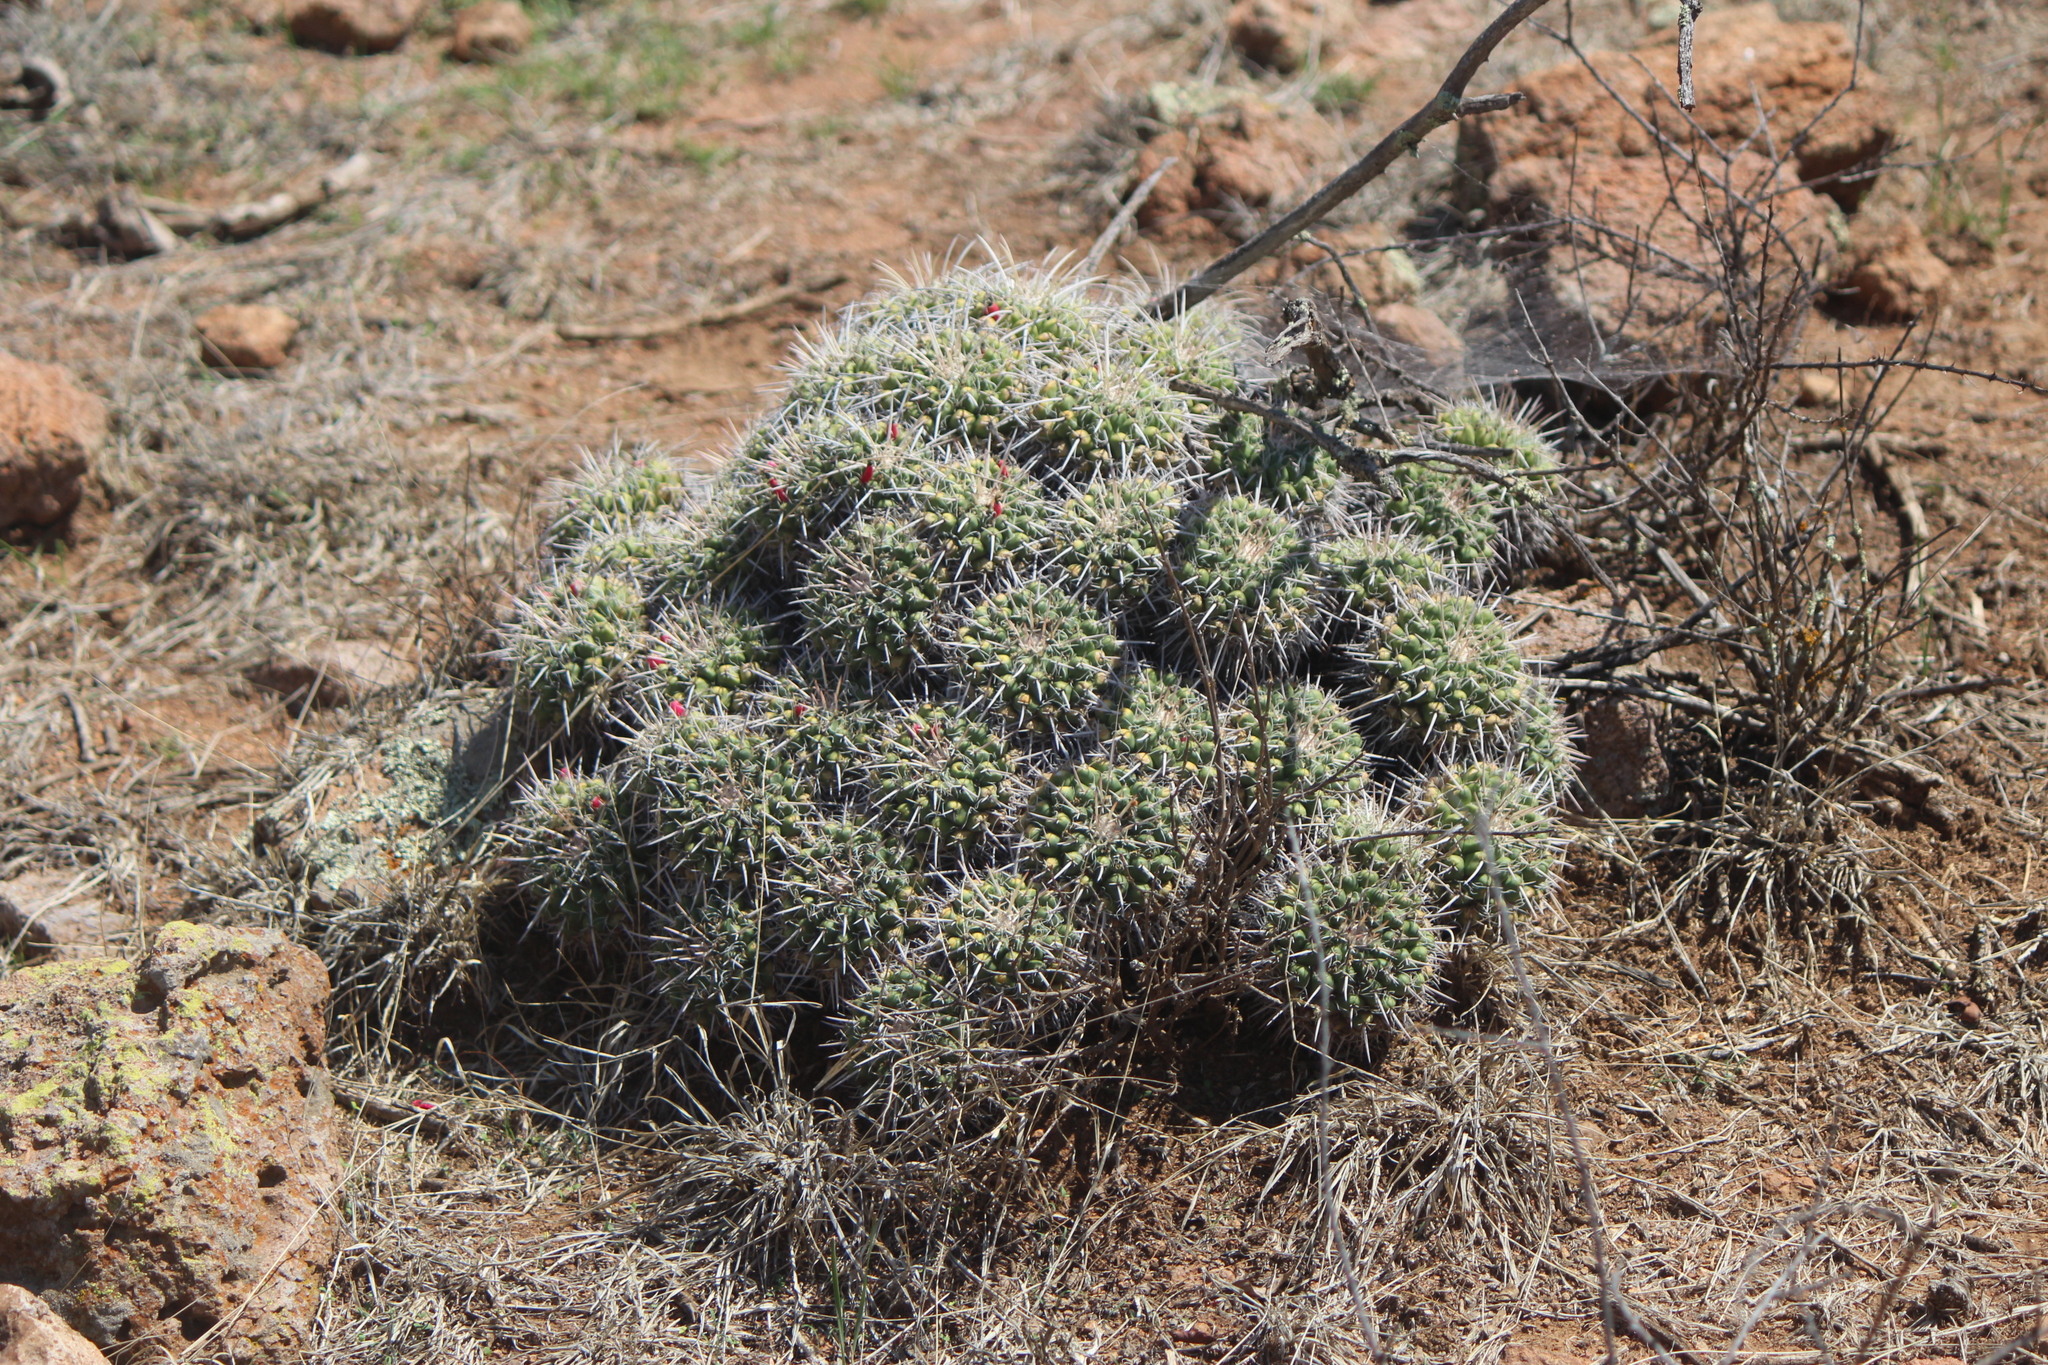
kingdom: Plantae
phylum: Tracheophyta
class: Magnoliopsida
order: Caryophyllales
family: Cactaceae
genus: Mammillaria
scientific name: Mammillaria compressa
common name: Mother-of-hundreds
